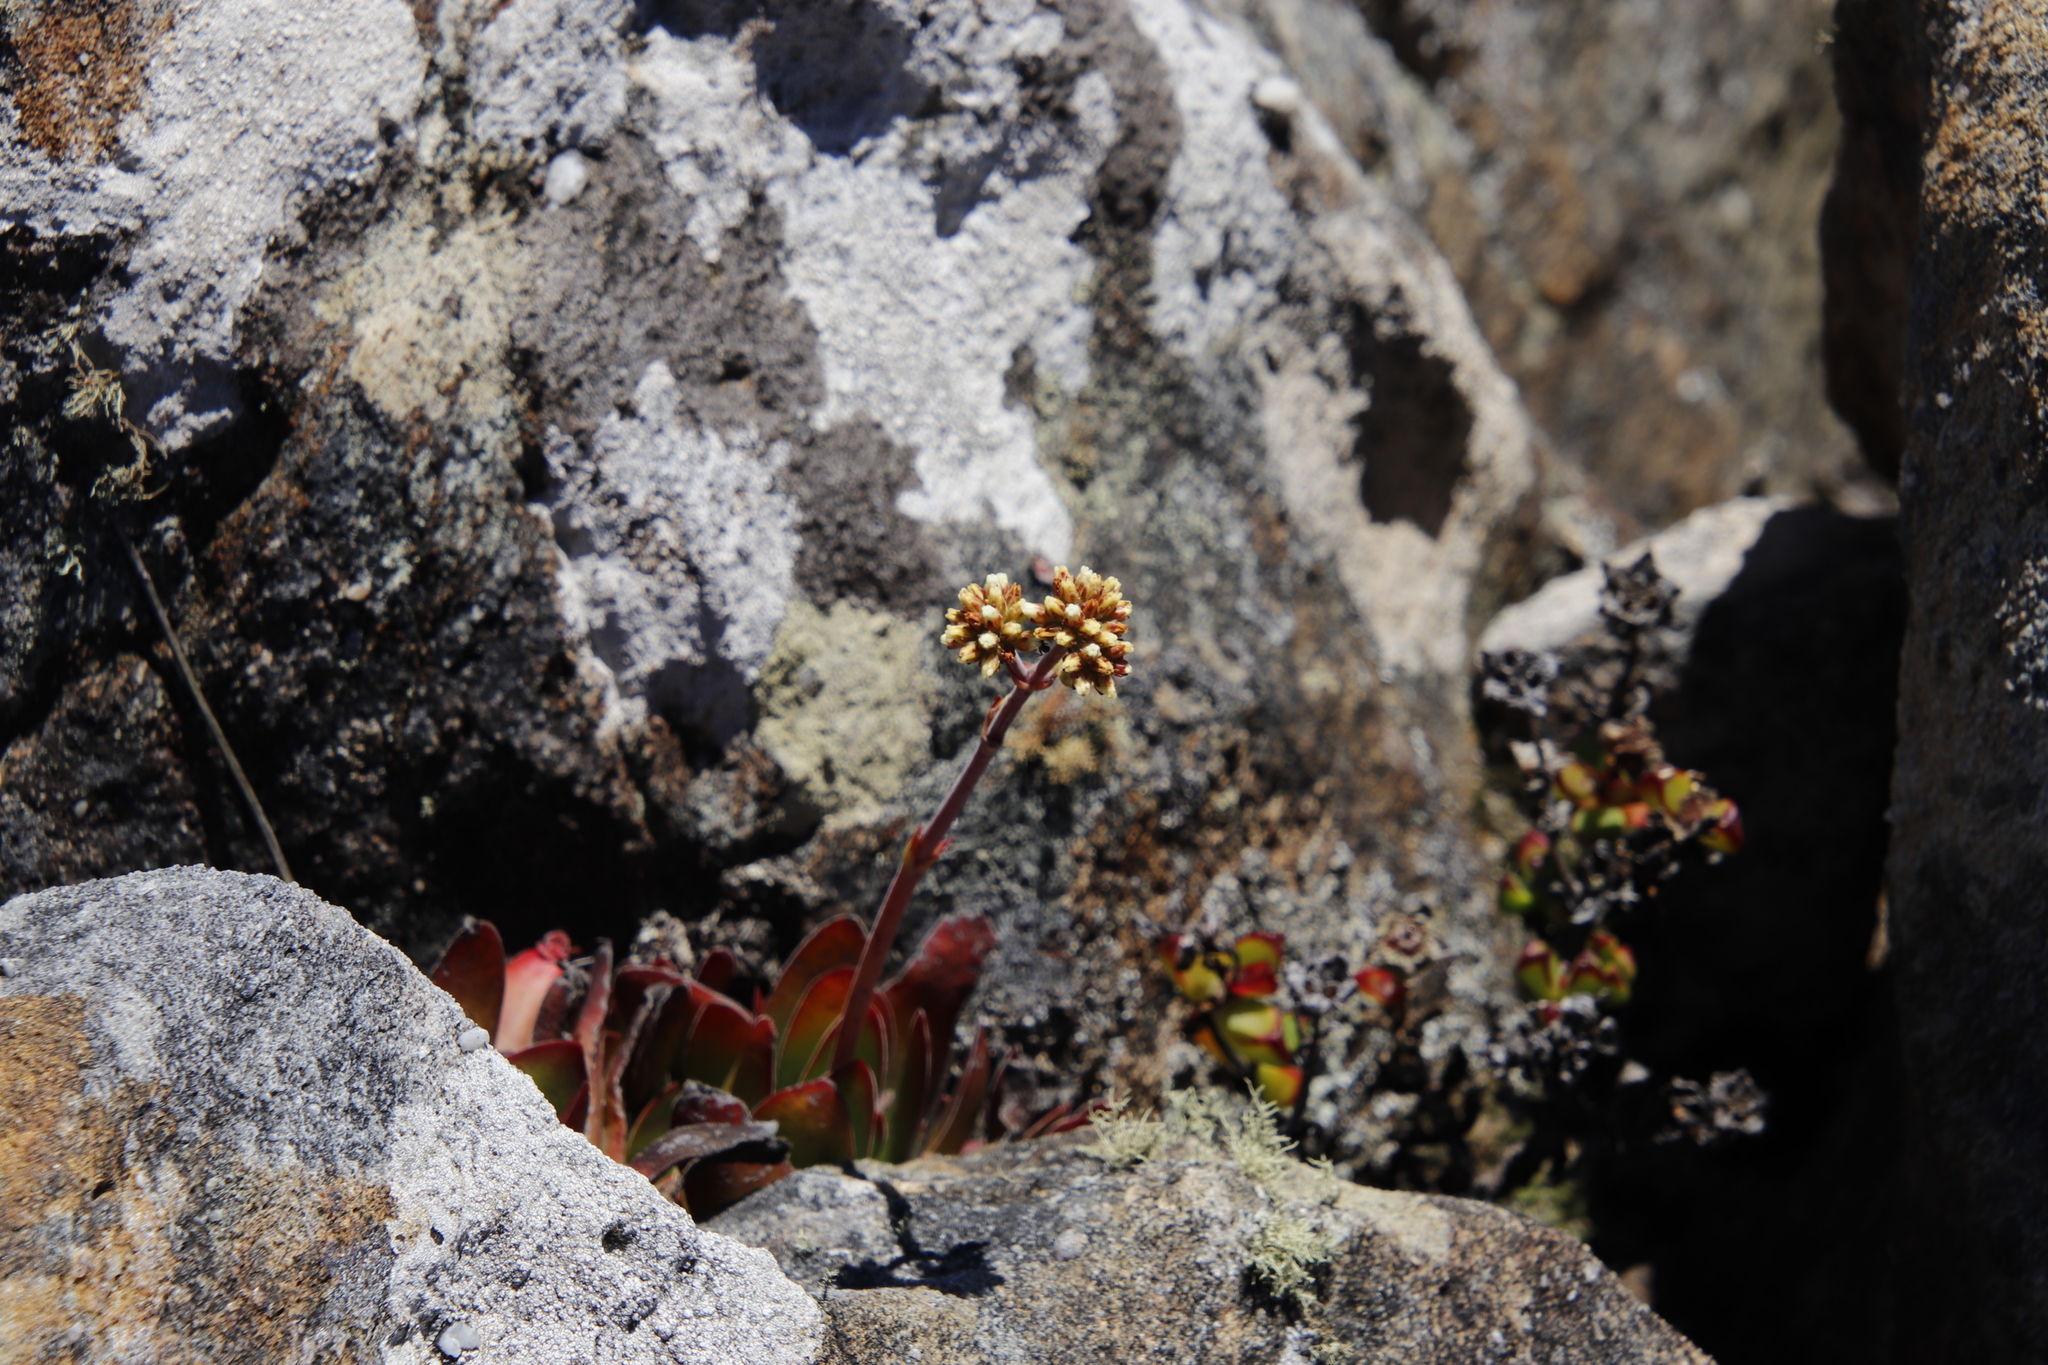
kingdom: Plantae
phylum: Tracheophyta
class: Magnoliopsida
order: Saxifragales
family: Crassulaceae
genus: Crassula
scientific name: Crassula nudicaulis
